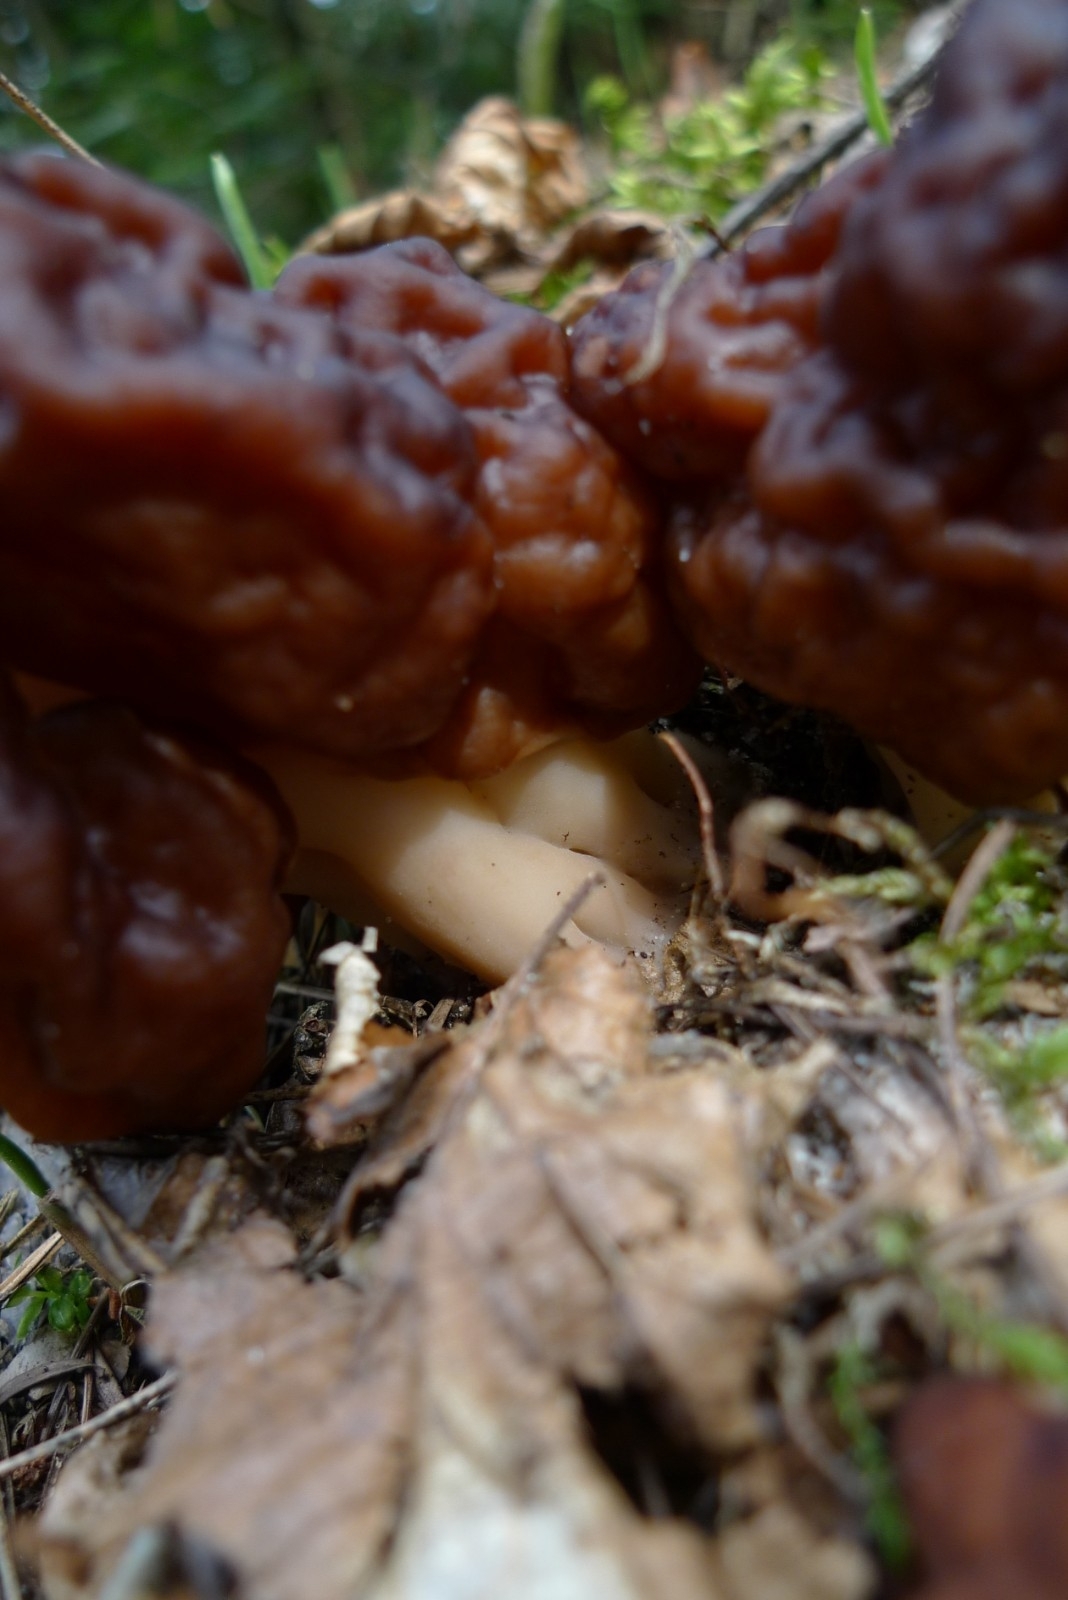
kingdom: Fungi
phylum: Ascomycota
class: Pezizomycetes
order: Pezizales
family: Discinaceae
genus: Gyromitra
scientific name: Gyromitra esculenta
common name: False morel
